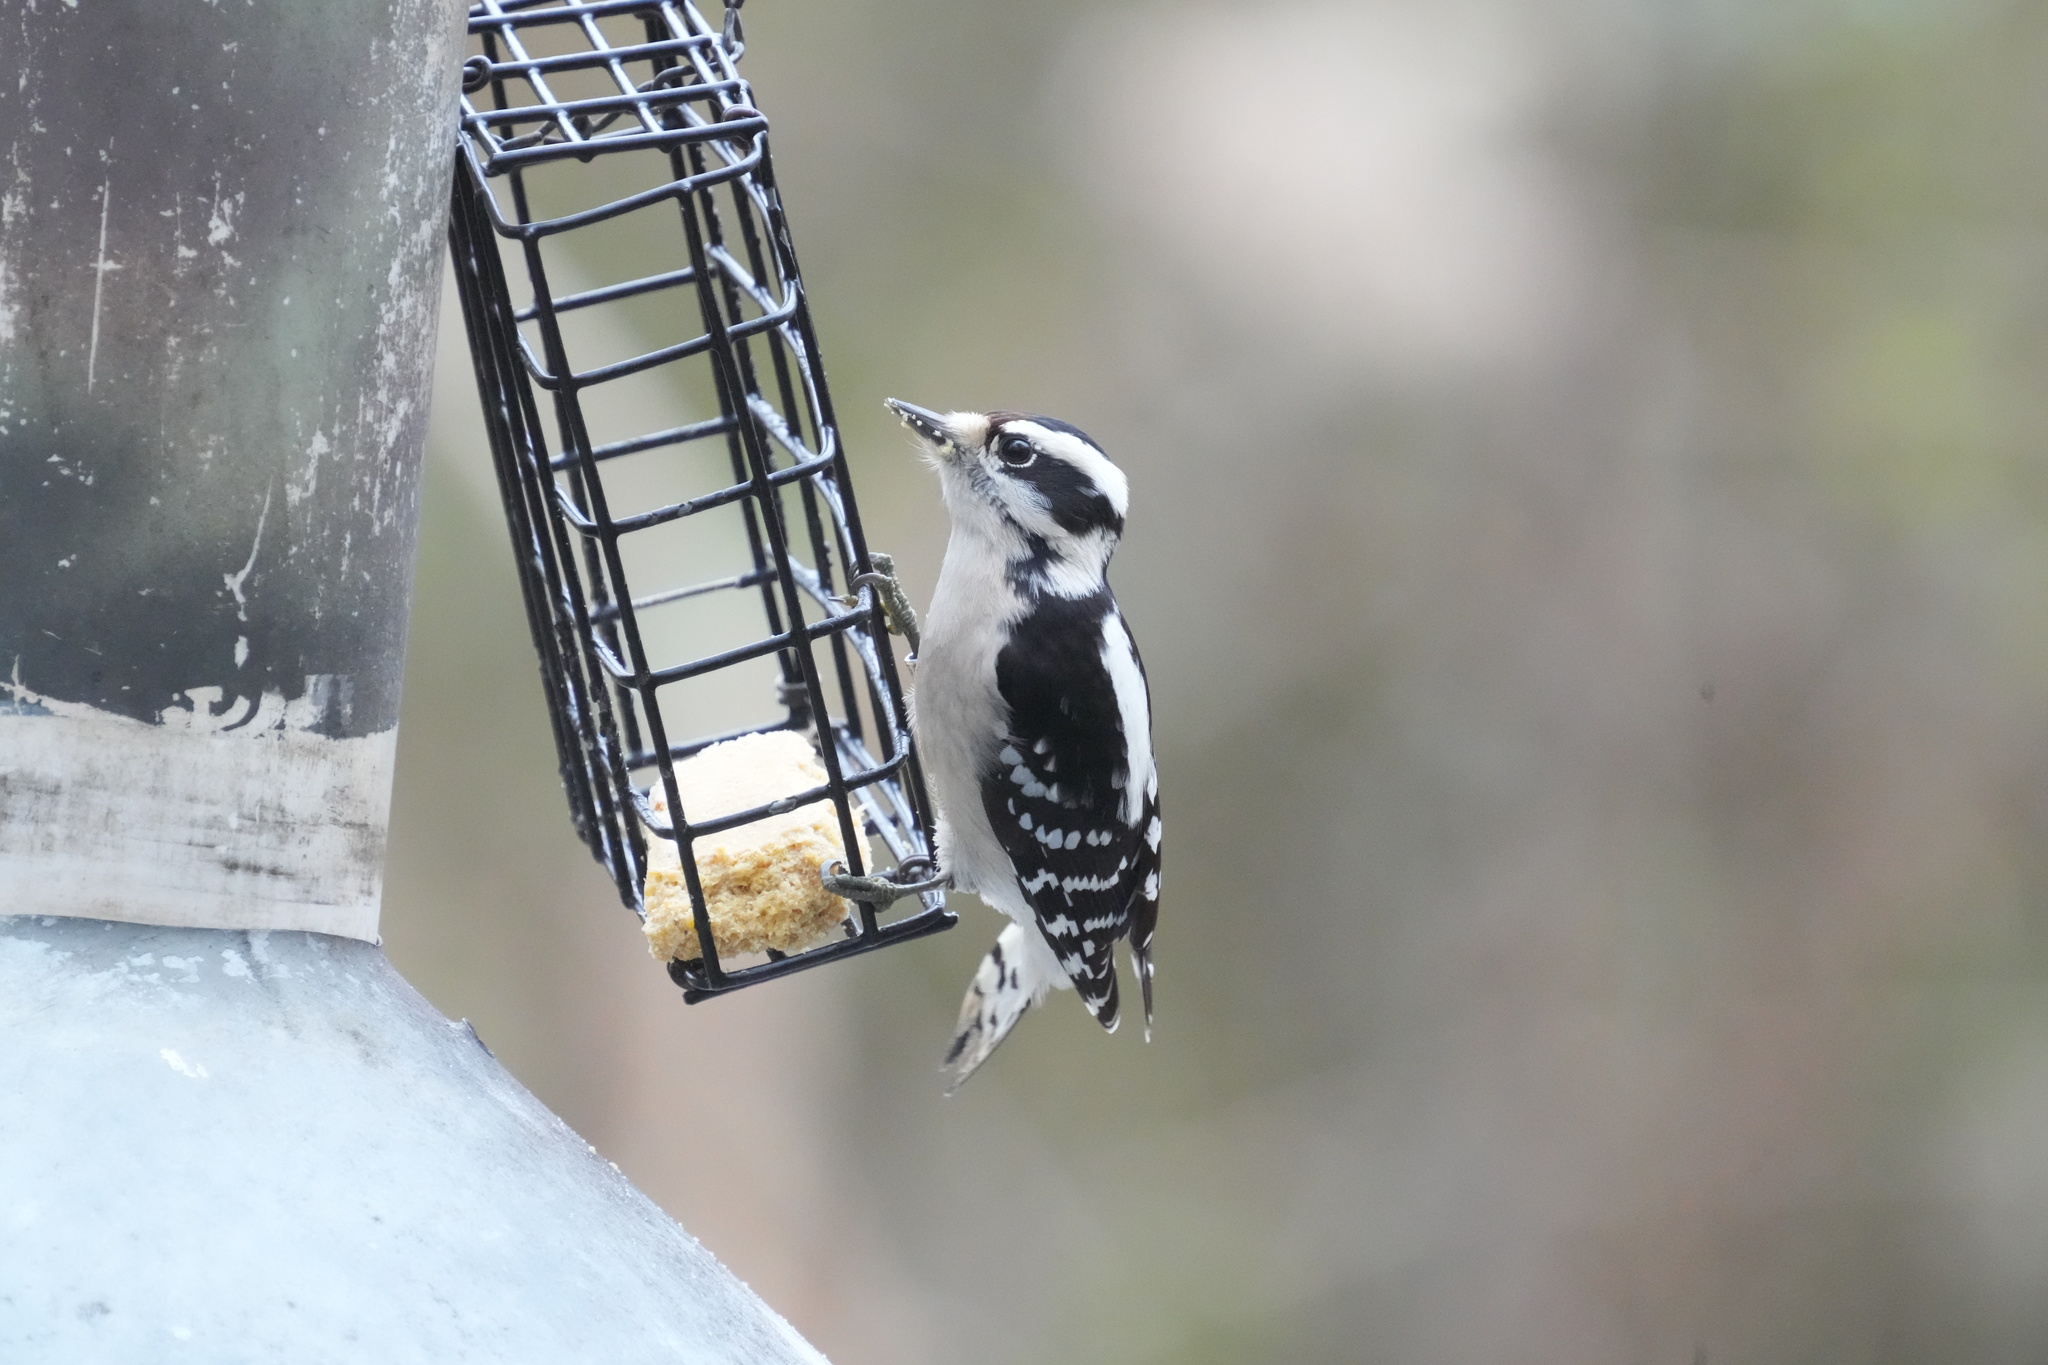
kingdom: Animalia
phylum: Chordata
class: Aves
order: Piciformes
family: Picidae
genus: Dryobates
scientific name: Dryobates pubescens
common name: Downy woodpecker
